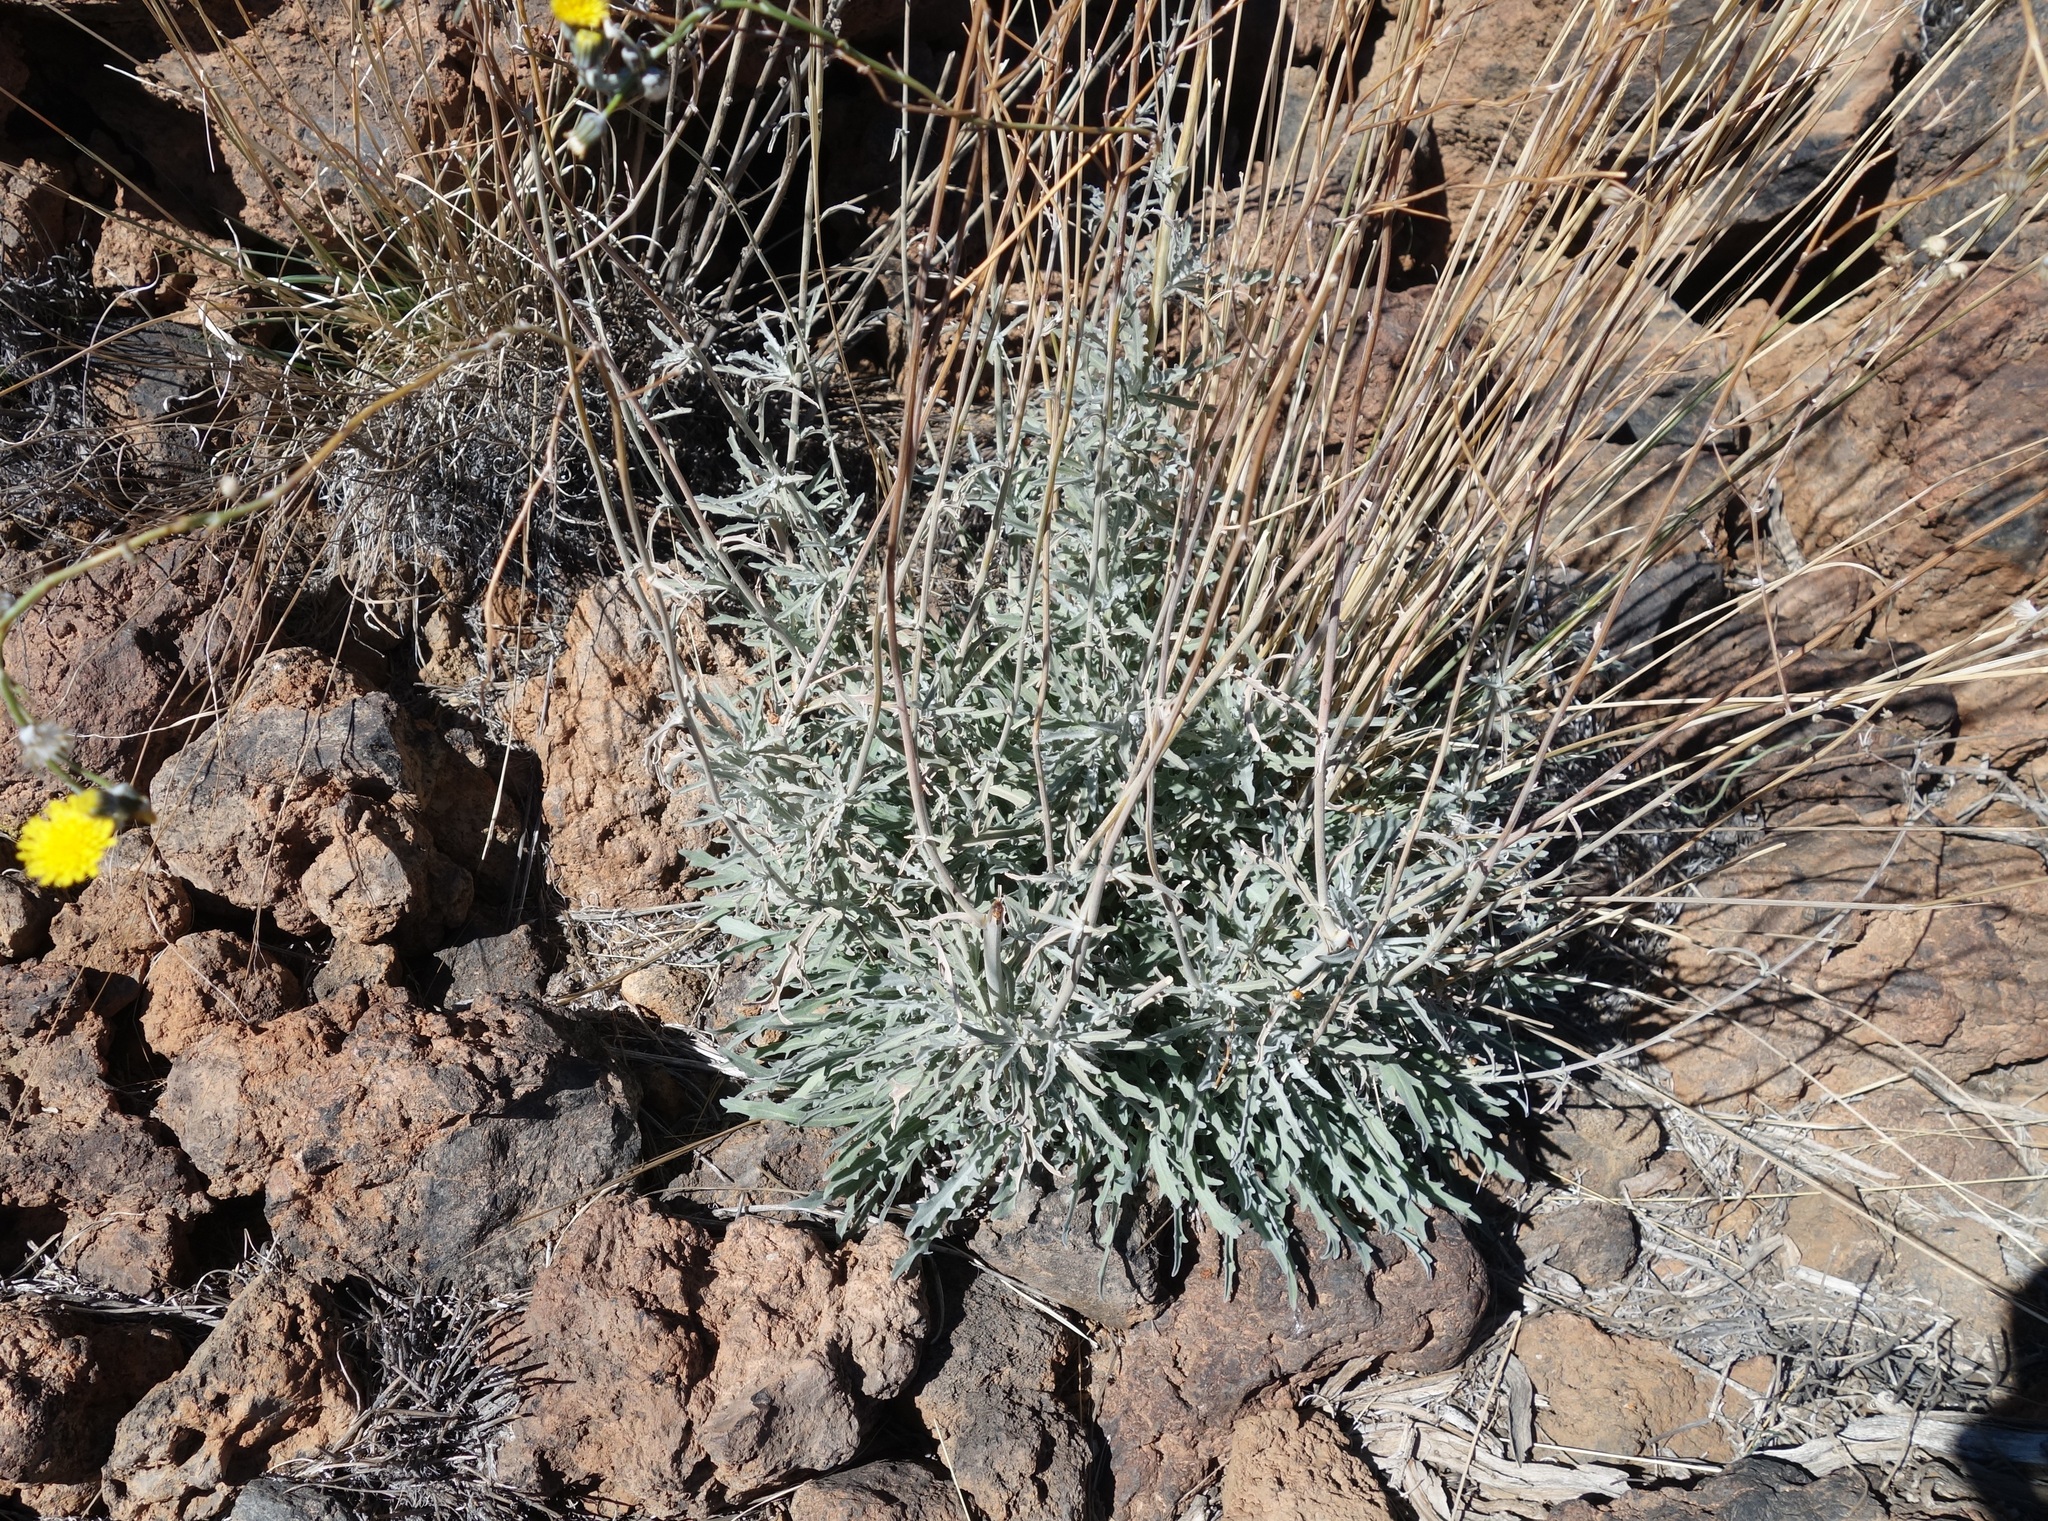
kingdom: Plantae
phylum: Tracheophyta
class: Magnoliopsida
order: Asterales
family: Asteraceae
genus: Andryala
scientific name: Andryala pinnatifida
